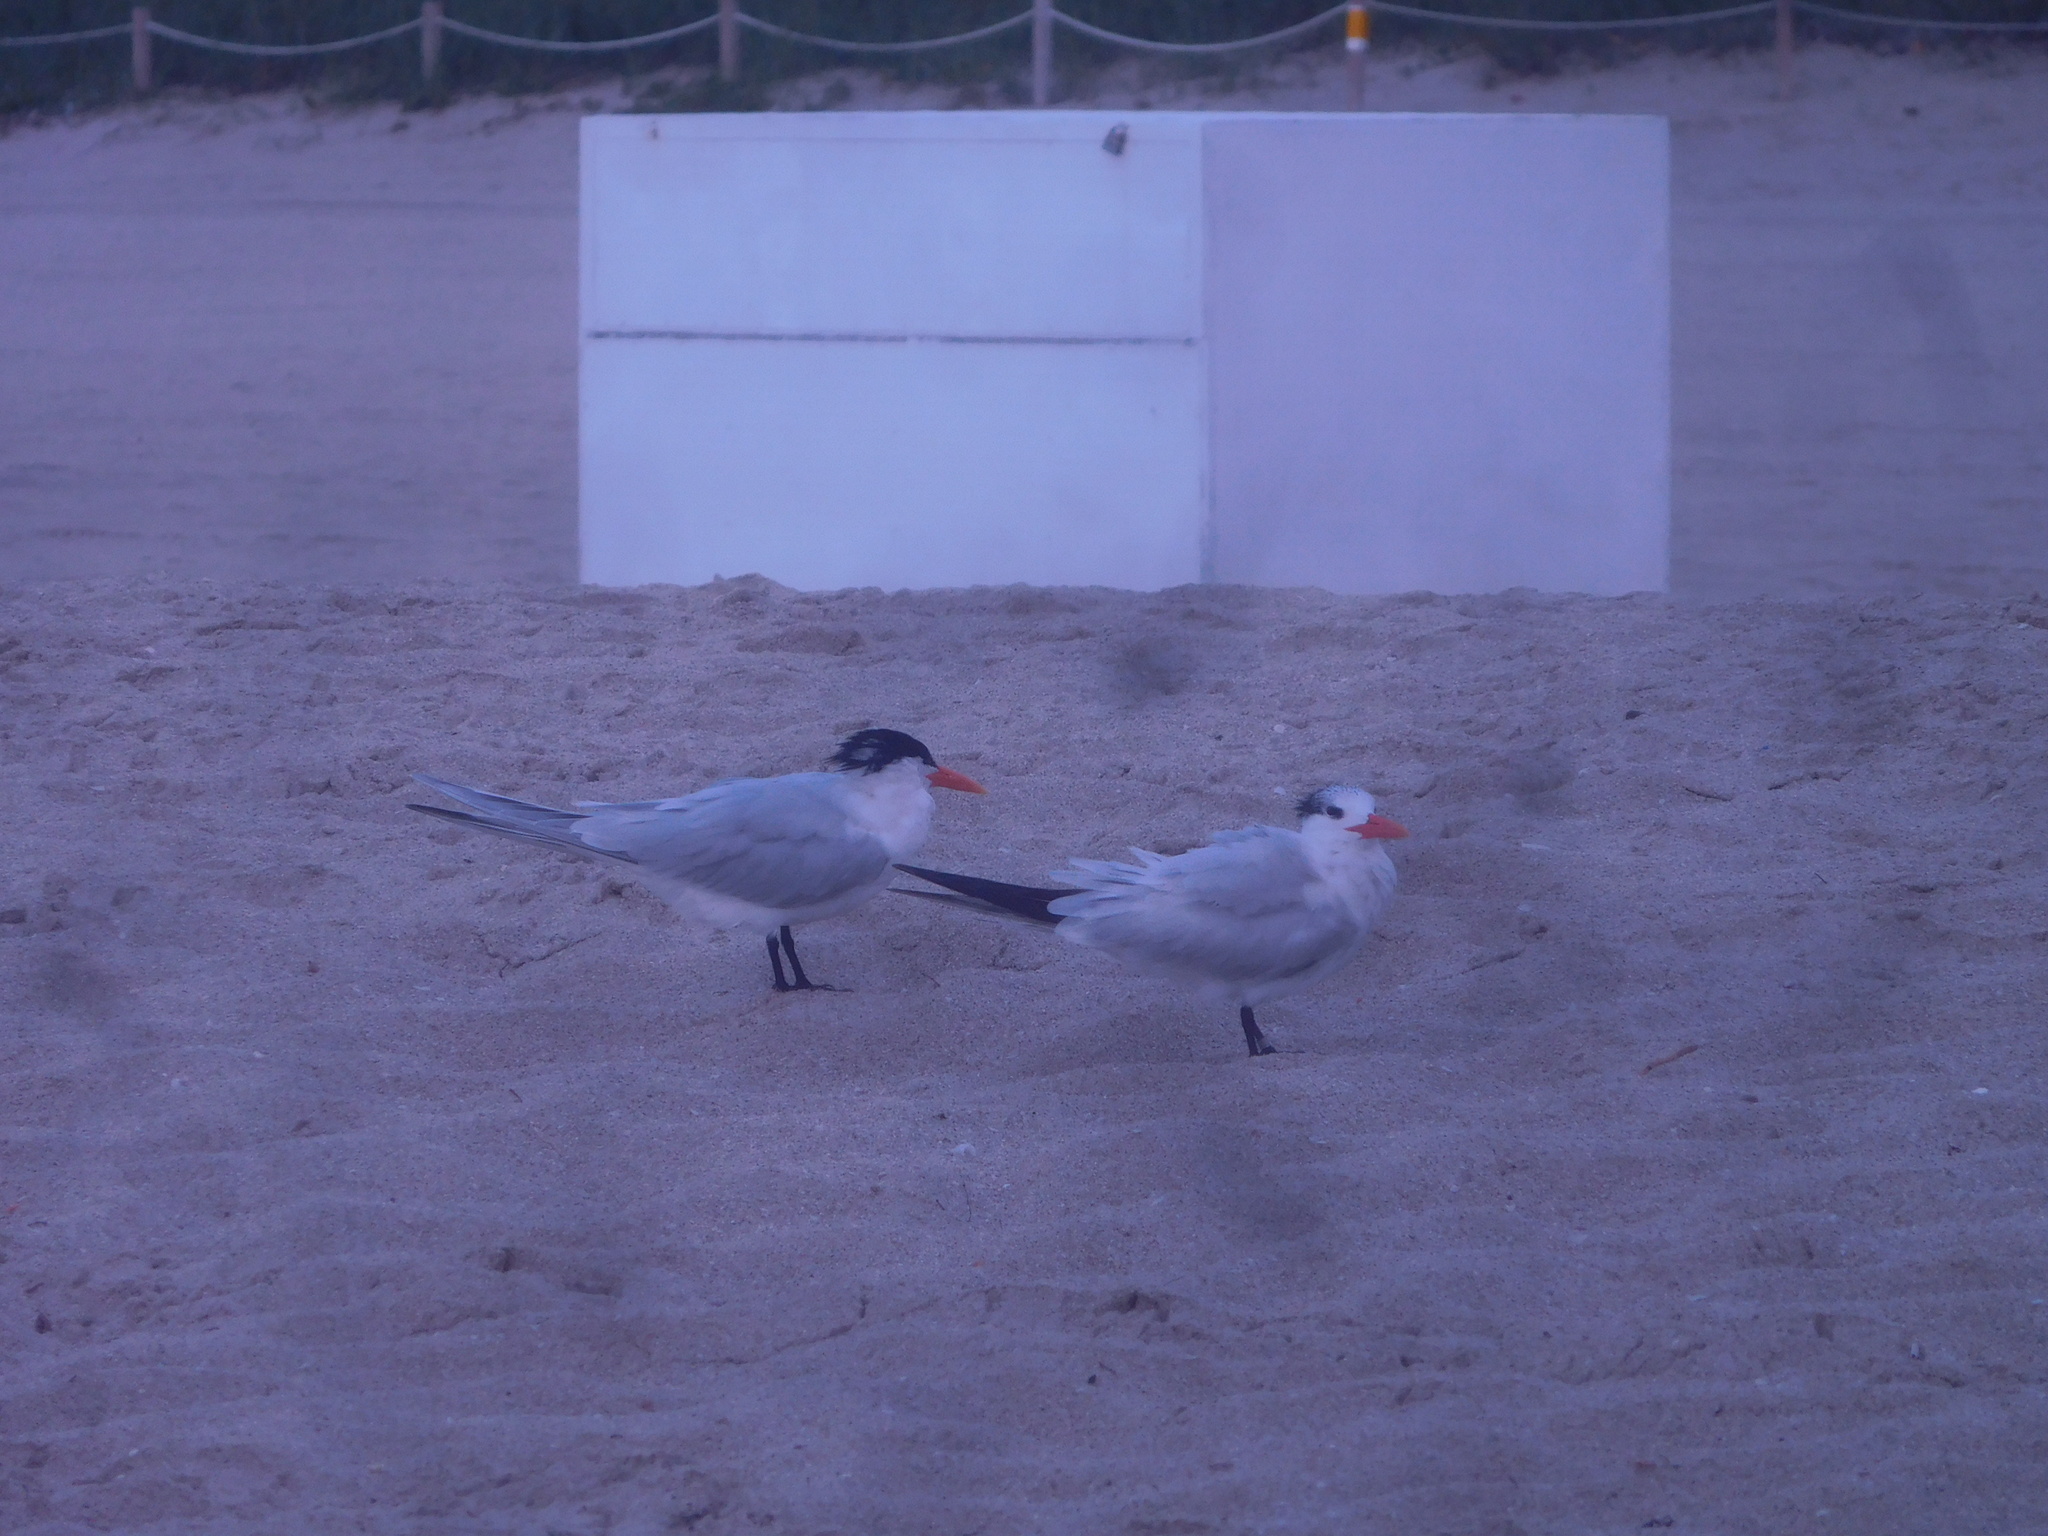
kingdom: Animalia
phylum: Chordata
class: Aves
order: Charadriiformes
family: Laridae
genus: Thalasseus
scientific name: Thalasseus maximus
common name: Royal tern
